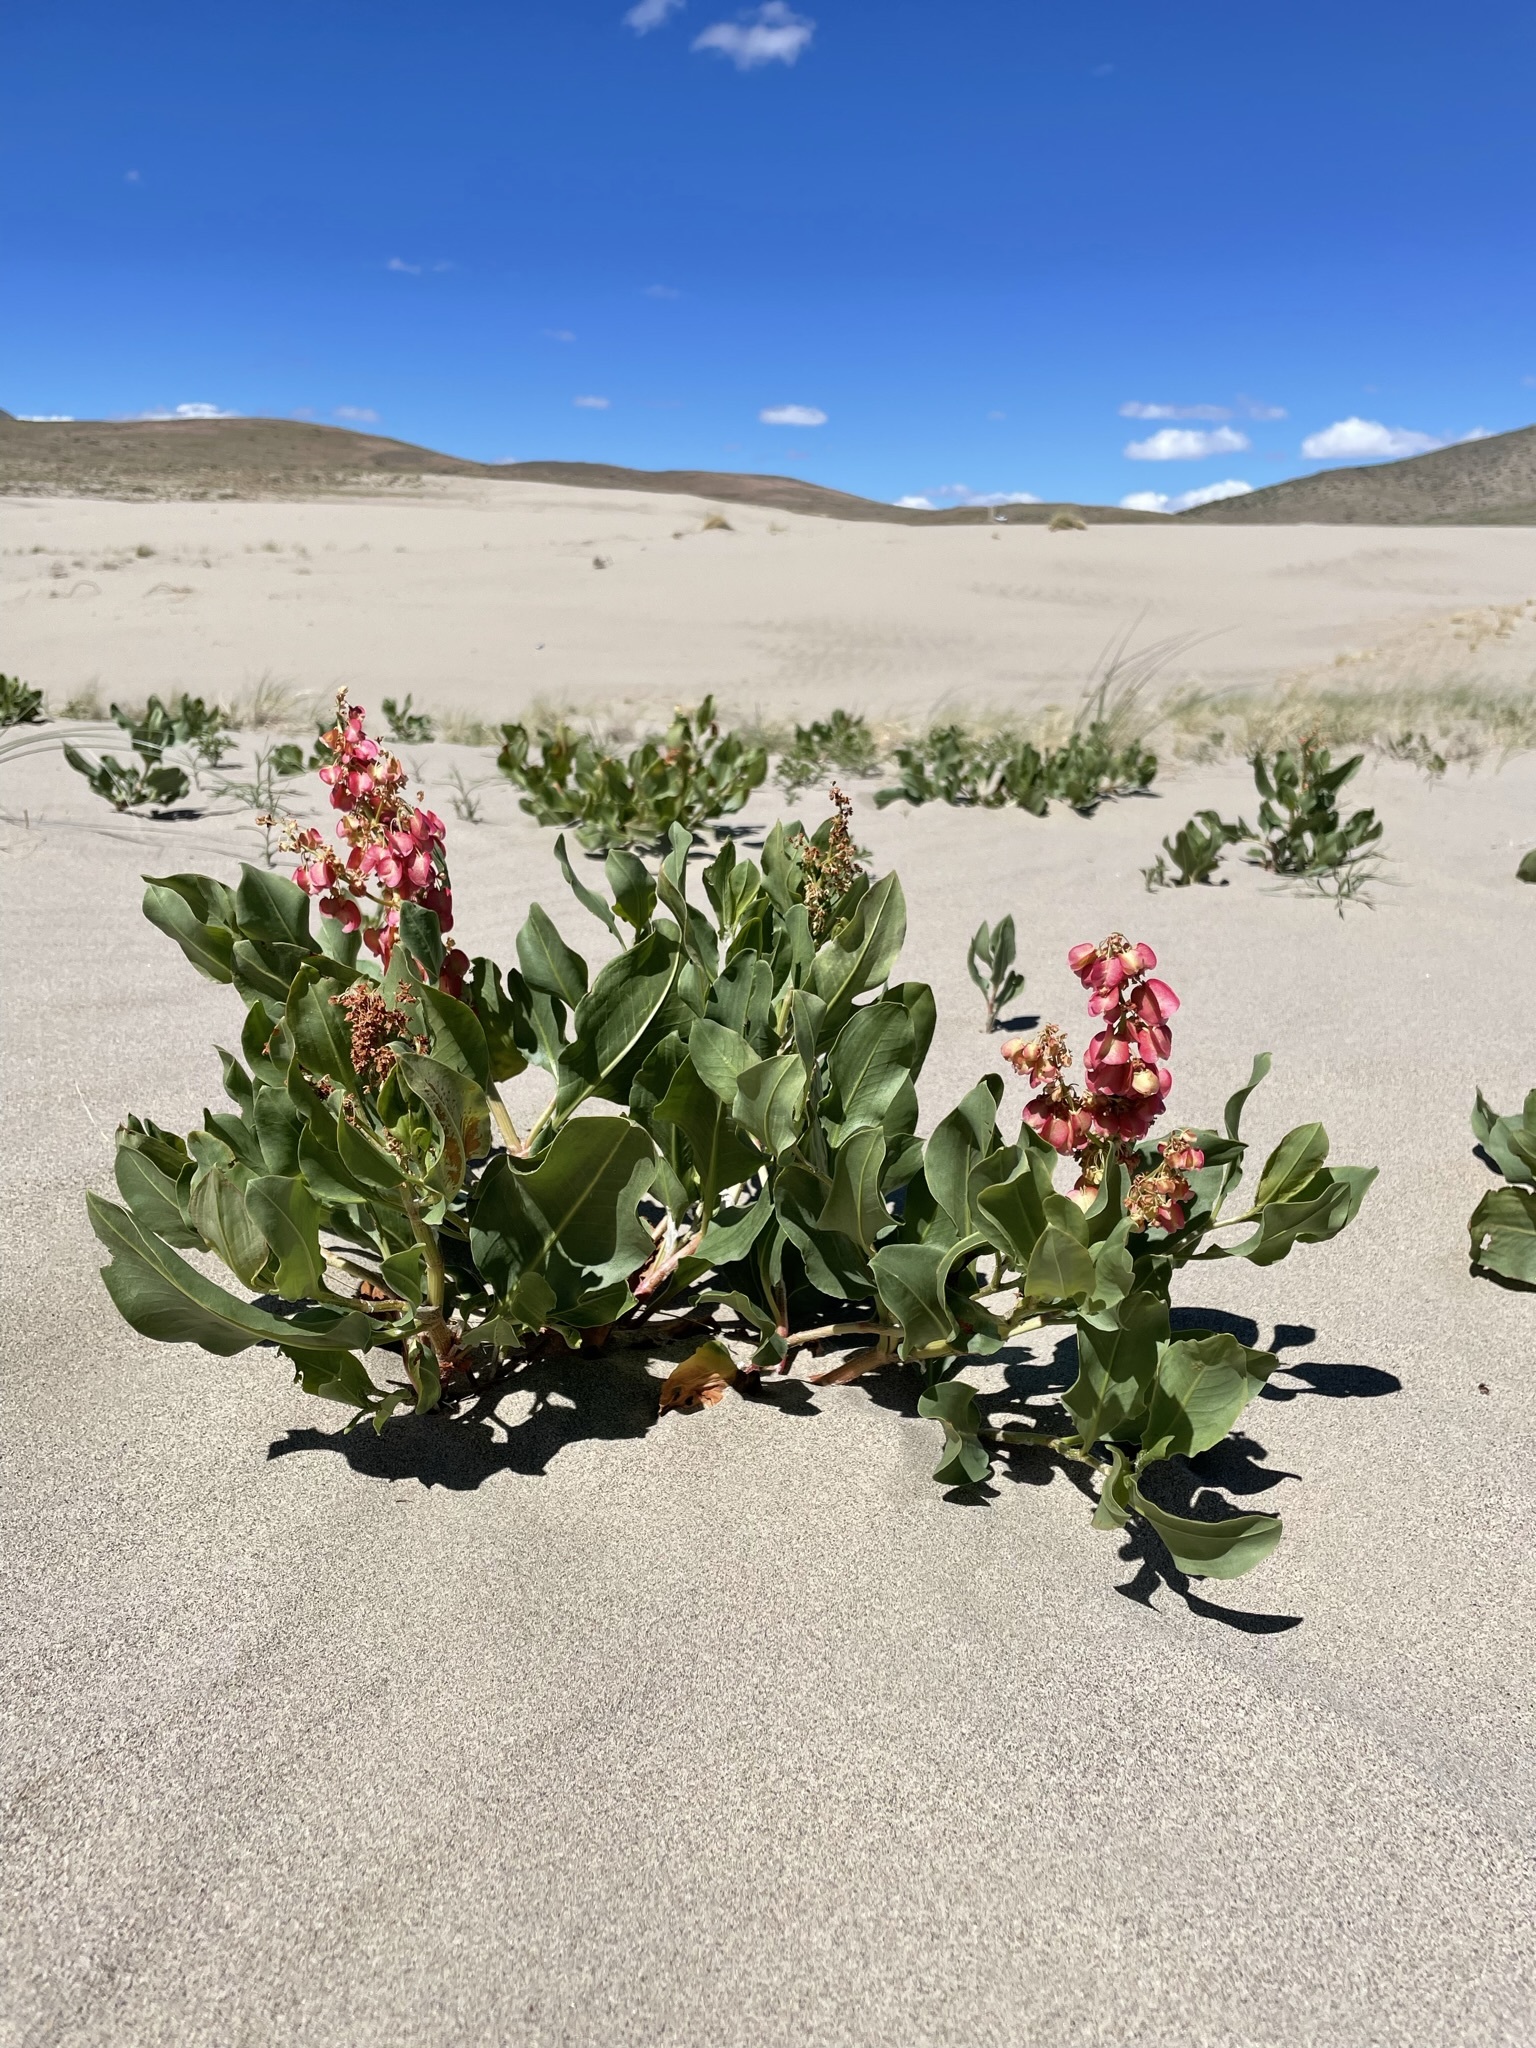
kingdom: Plantae
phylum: Tracheophyta
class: Magnoliopsida
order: Caryophyllales
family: Polygonaceae
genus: Rumex
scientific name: Rumex venosus
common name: Winged dock
